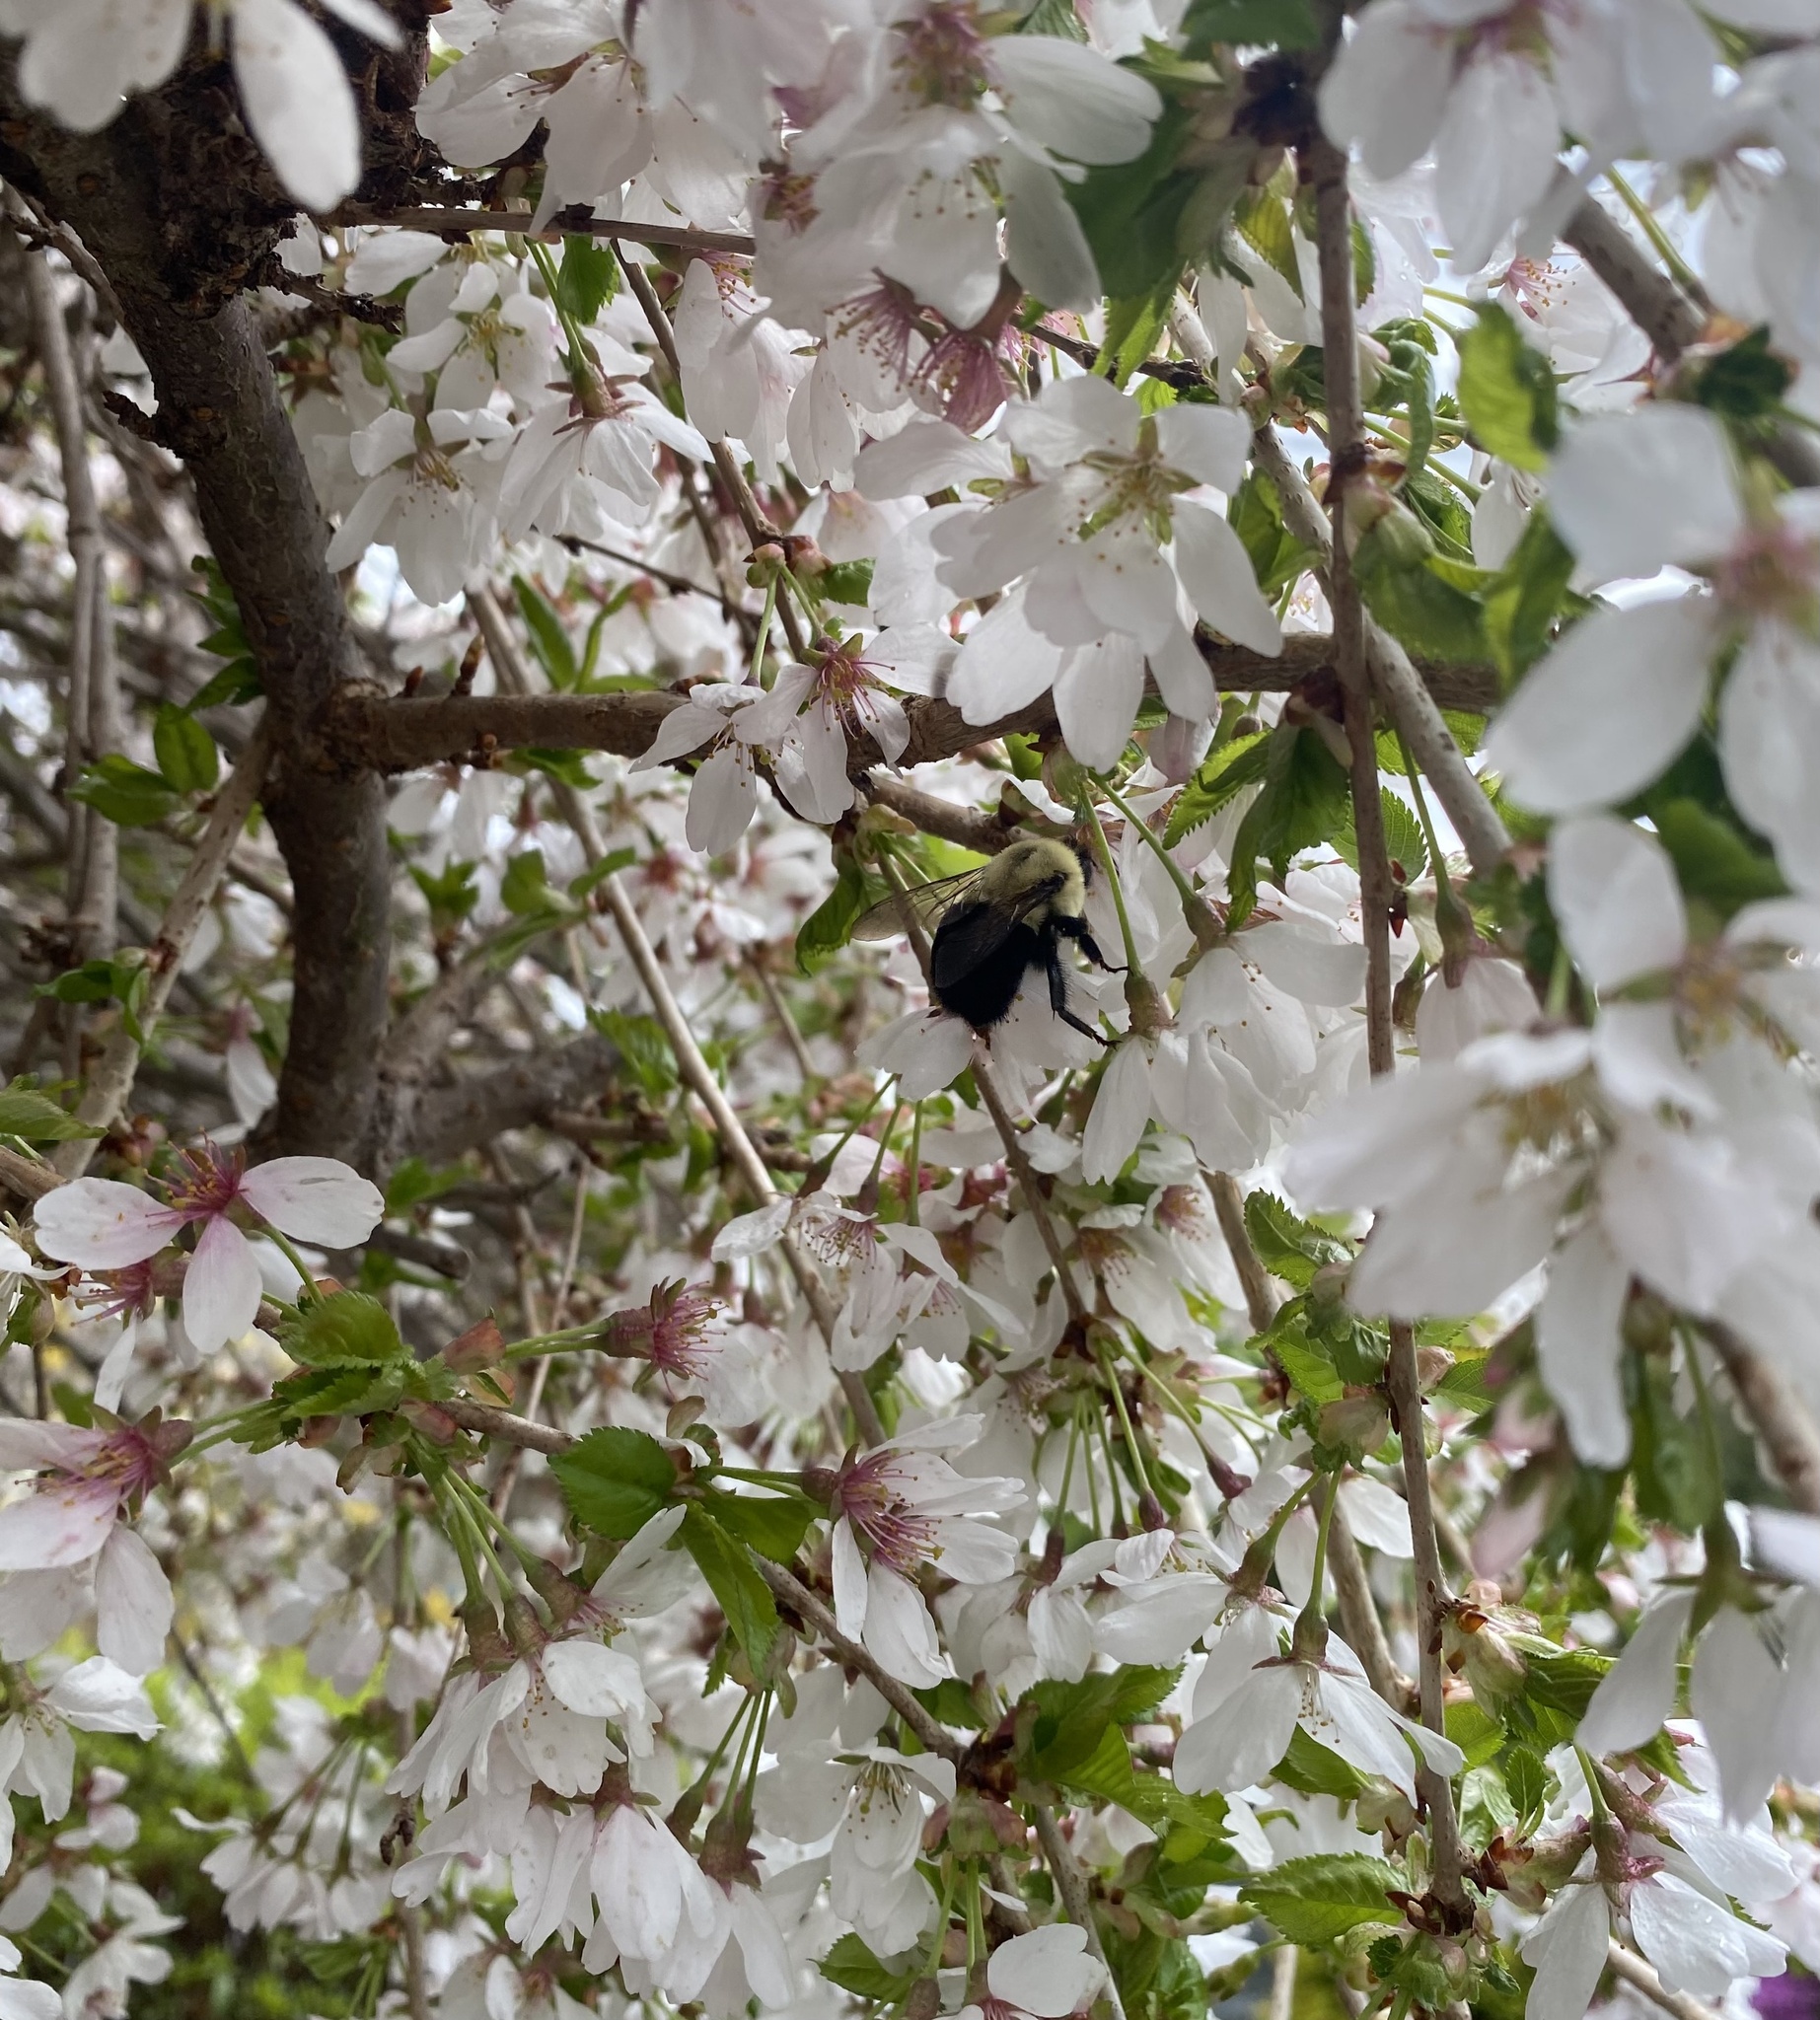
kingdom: Animalia
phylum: Arthropoda
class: Insecta
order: Hymenoptera
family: Apidae
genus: Bombus
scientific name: Bombus impatiens
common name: Common eastern bumble bee
